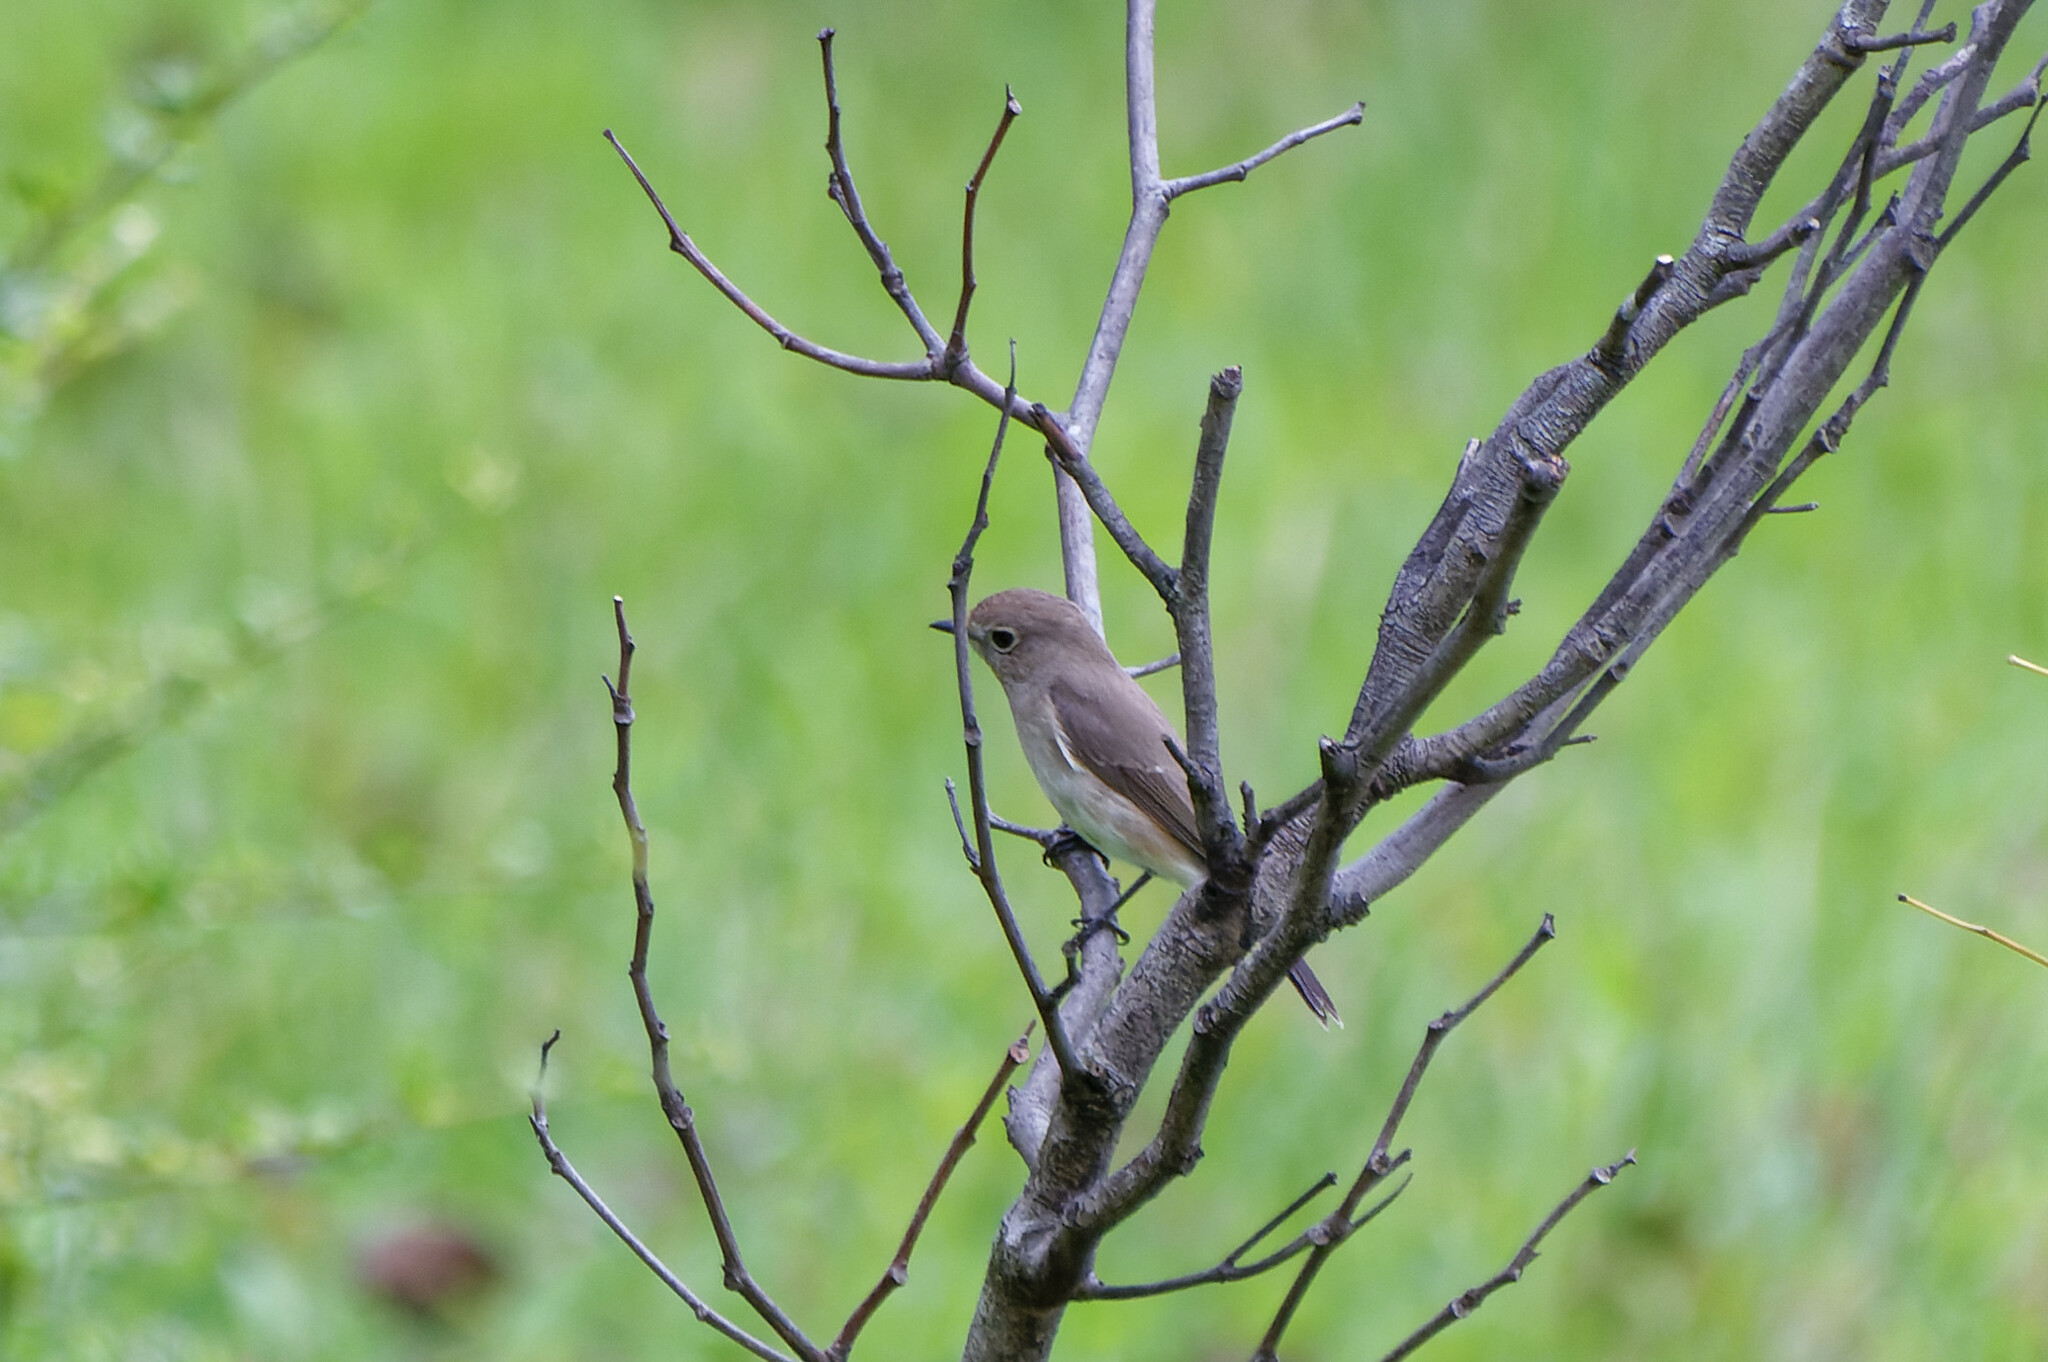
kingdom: Animalia
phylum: Chordata
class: Aves
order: Passeriformes
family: Muscicapidae
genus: Ficedula
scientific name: Ficedula albicilla
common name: Taiga flycatcher
